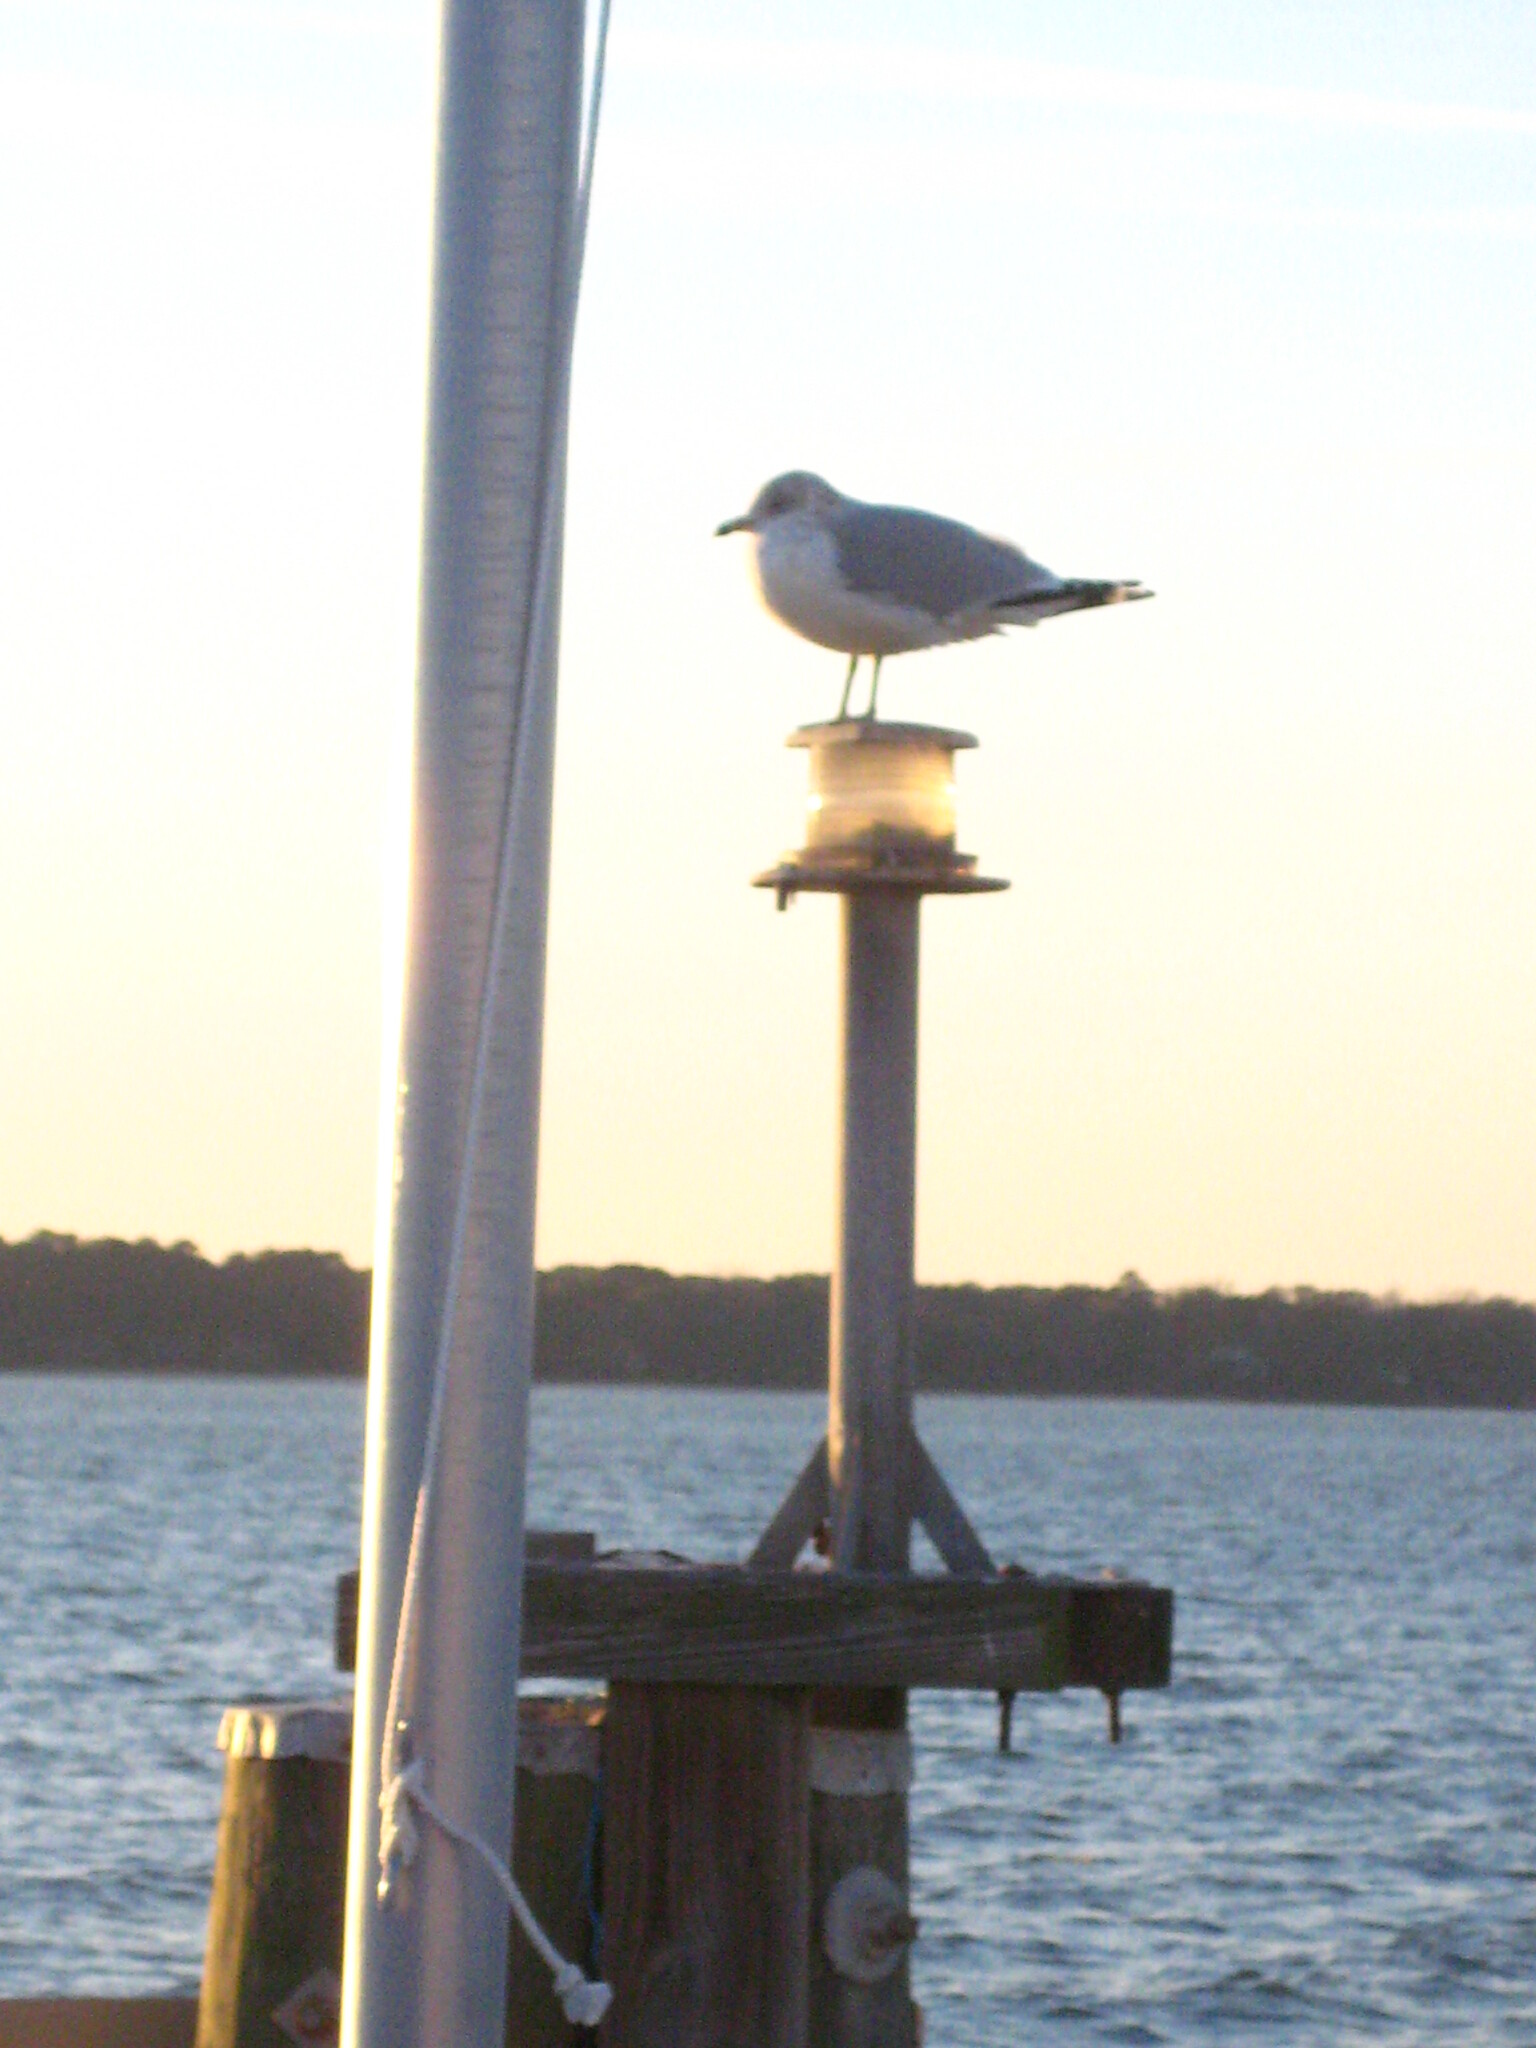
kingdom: Animalia
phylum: Chordata
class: Aves
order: Charadriiformes
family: Laridae
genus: Larus
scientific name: Larus delawarensis
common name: Ring-billed gull
